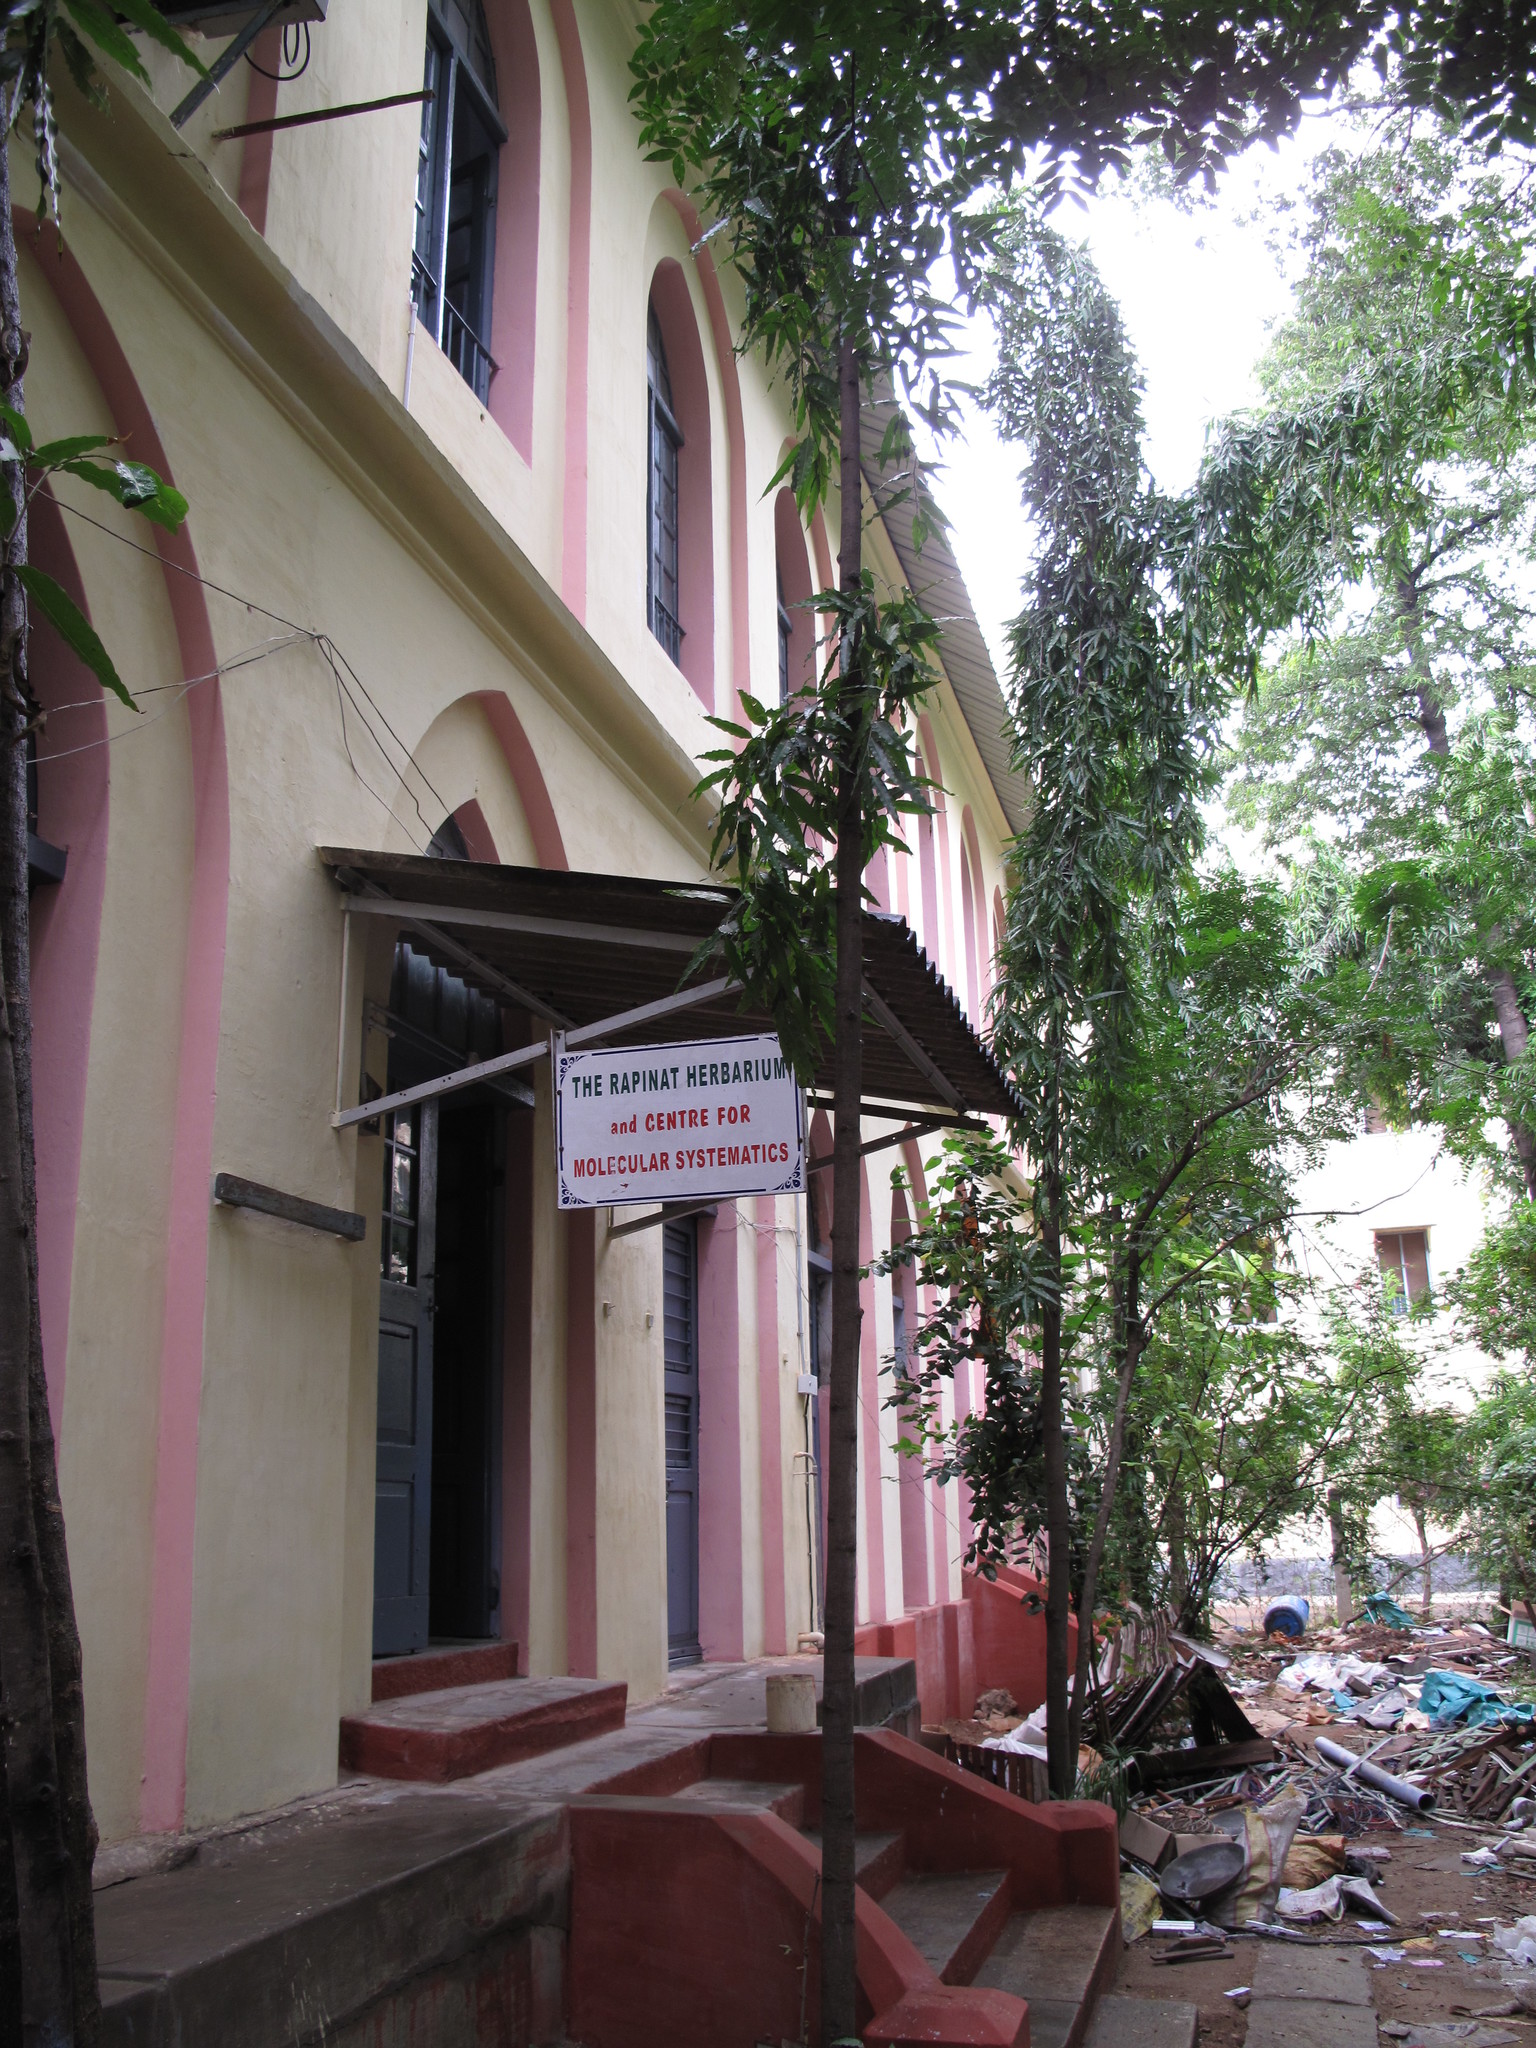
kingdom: Plantae
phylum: Tracheophyta
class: Magnoliopsida
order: Magnoliales
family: Annonaceae
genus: Polyalthia
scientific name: Polyalthia longifolia
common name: Cemetery-tree
